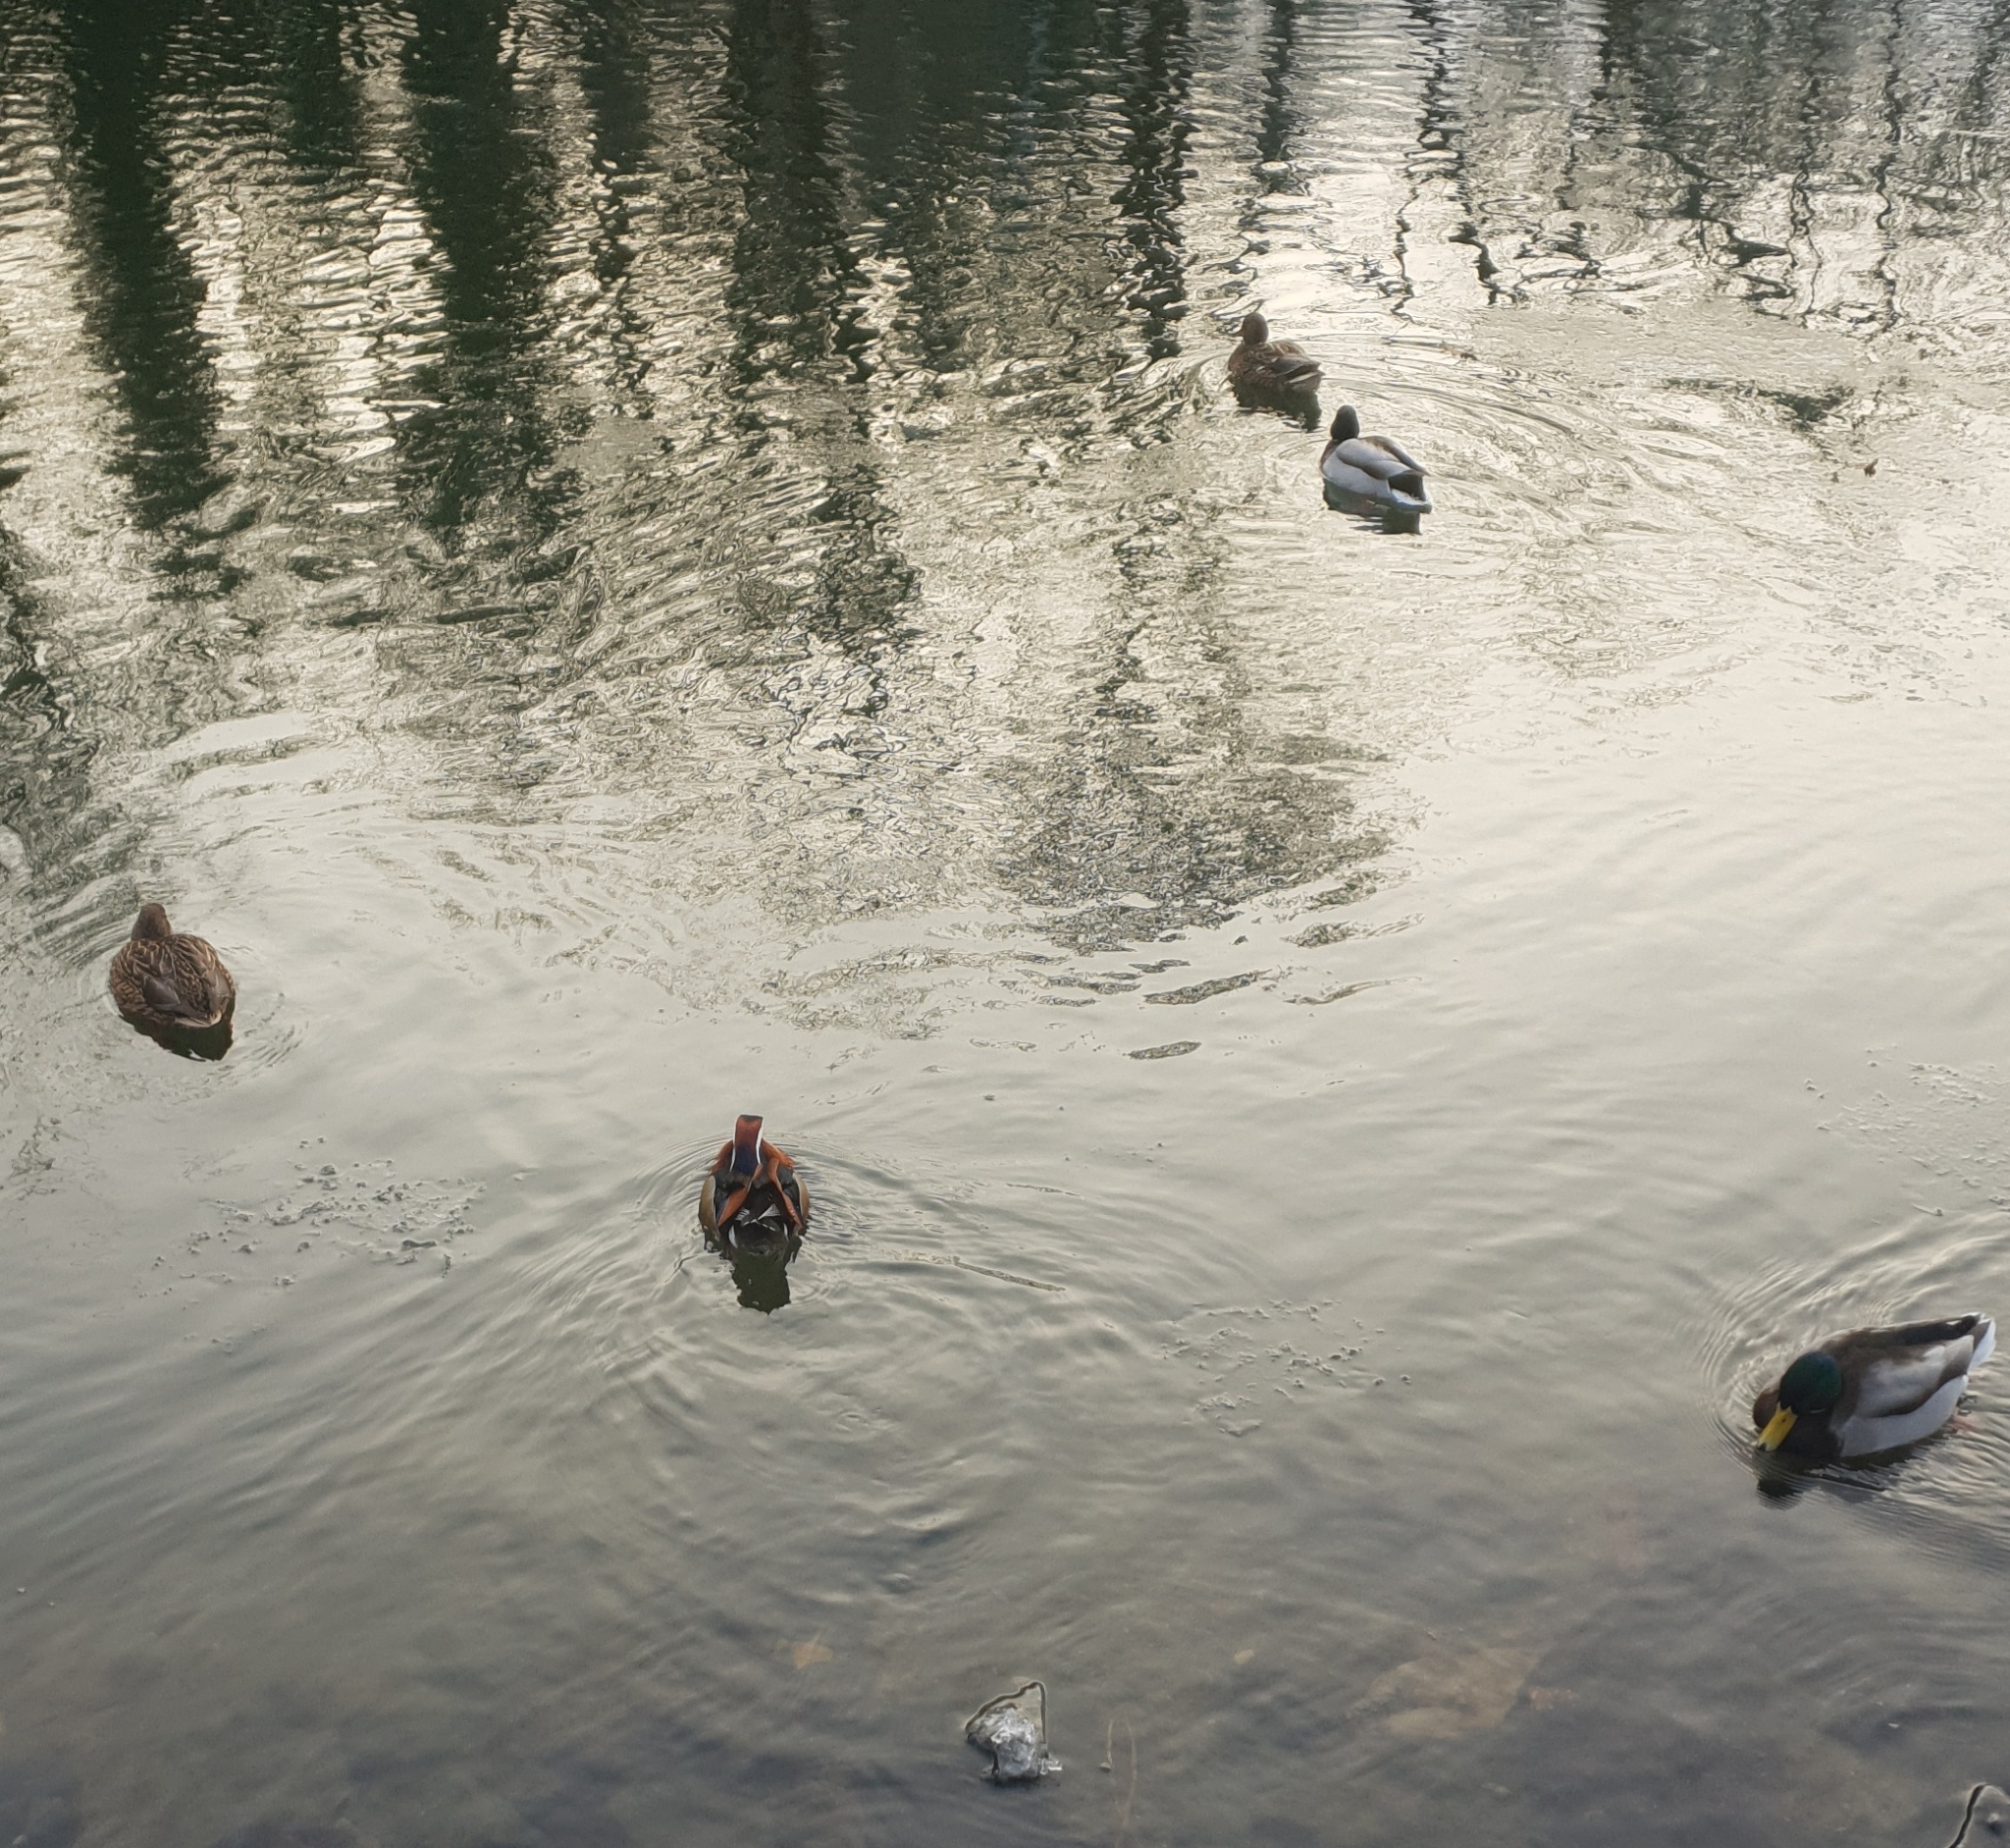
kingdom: Animalia
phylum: Chordata
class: Aves
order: Anseriformes
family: Anatidae
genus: Aix
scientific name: Aix galericulata
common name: Mandarin duck
